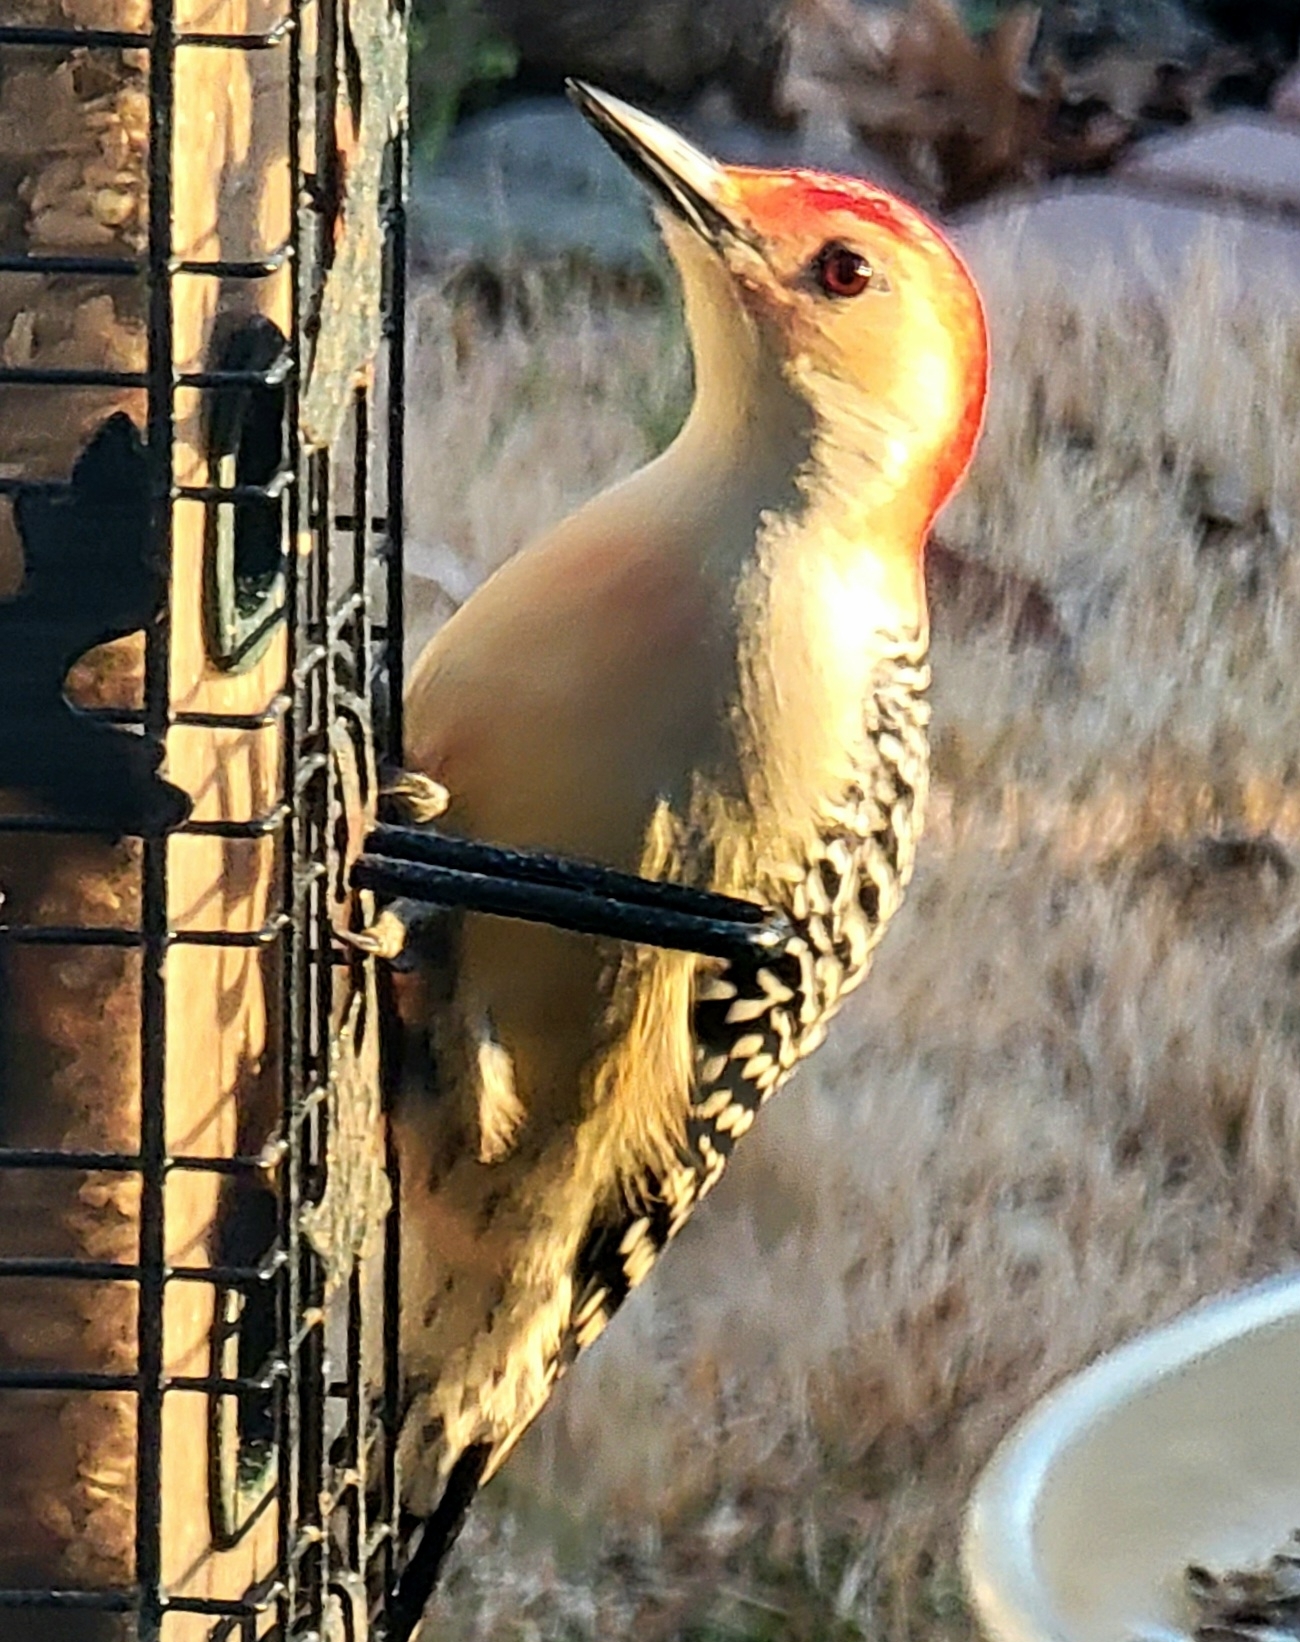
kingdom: Animalia
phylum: Chordata
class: Aves
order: Piciformes
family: Picidae
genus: Melanerpes
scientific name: Melanerpes carolinus
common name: Red-bellied woodpecker
